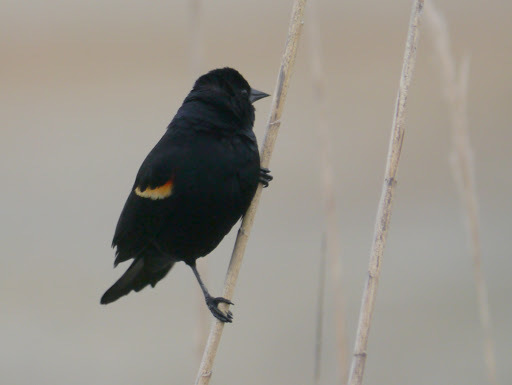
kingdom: Animalia
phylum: Chordata
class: Aves
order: Passeriformes
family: Icteridae
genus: Agelaius
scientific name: Agelaius phoeniceus
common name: Red-winged blackbird
